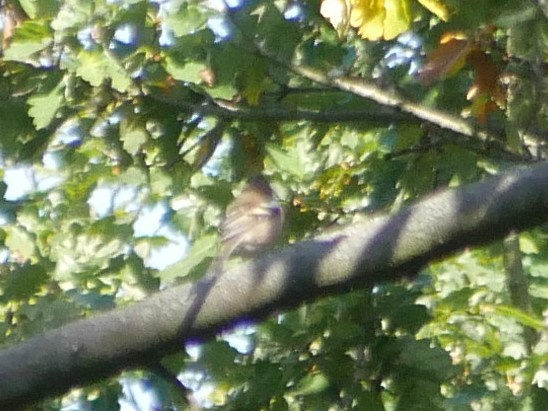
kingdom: Animalia
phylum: Chordata
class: Aves
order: Passeriformes
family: Fringillidae
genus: Fringilla
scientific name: Fringilla coelebs
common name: Common chaffinch
